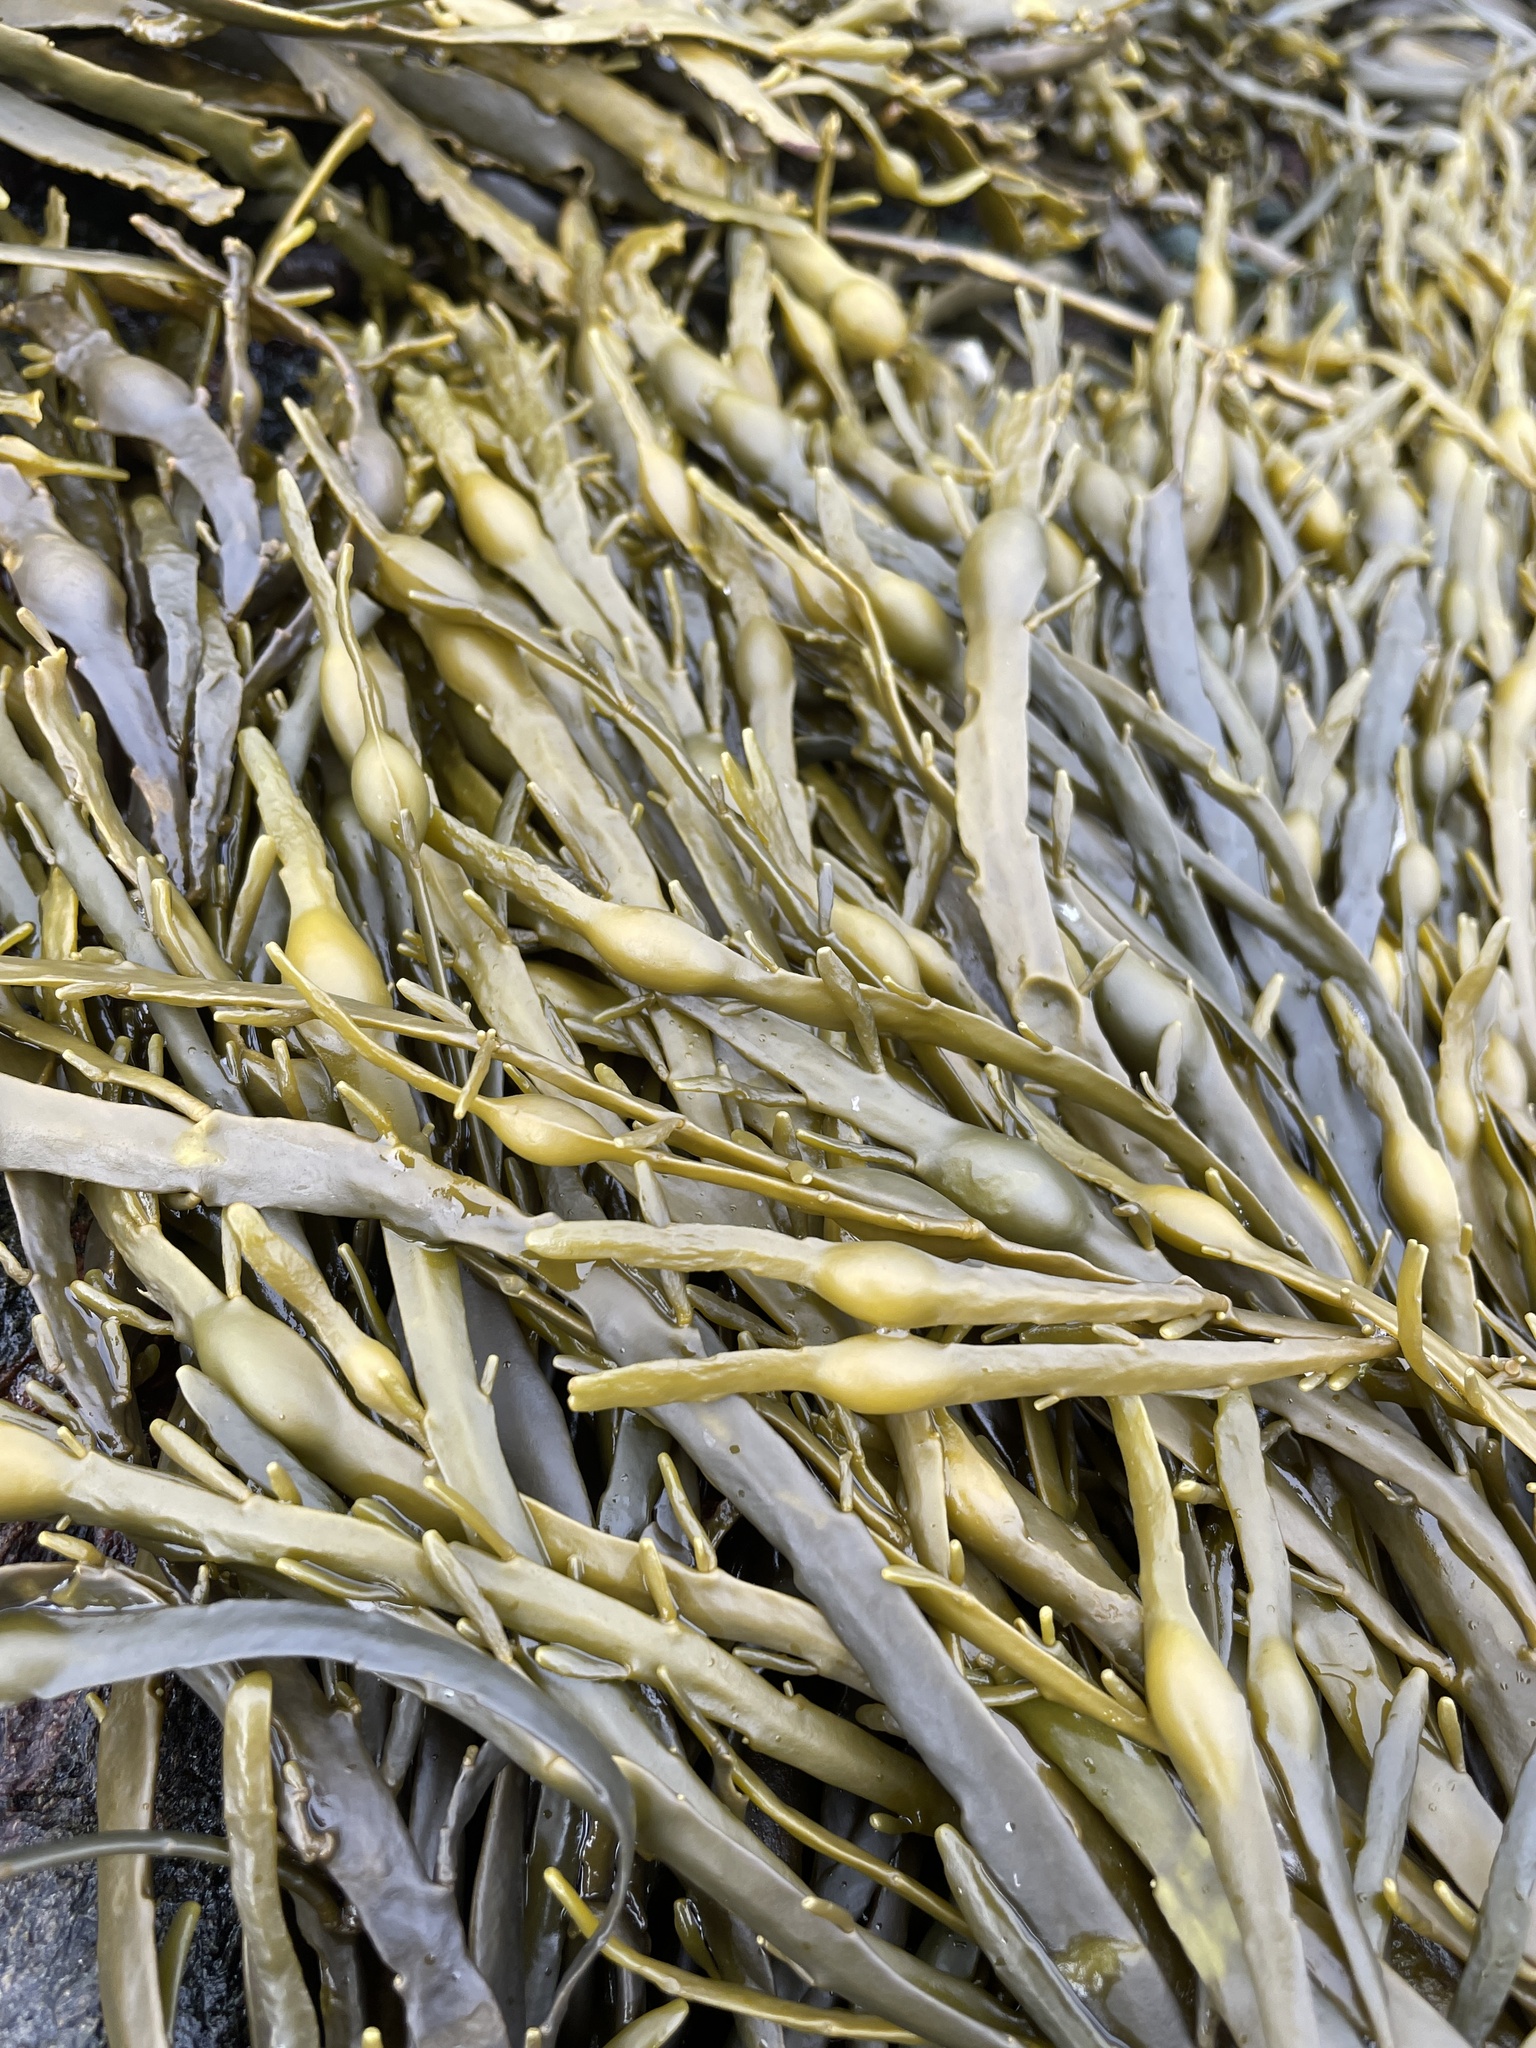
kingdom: Chromista
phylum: Ochrophyta
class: Phaeophyceae
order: Fucales
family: Fucaceae
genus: Ascophyllum
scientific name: Ascophyllum nodosum
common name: Knotted wrack
